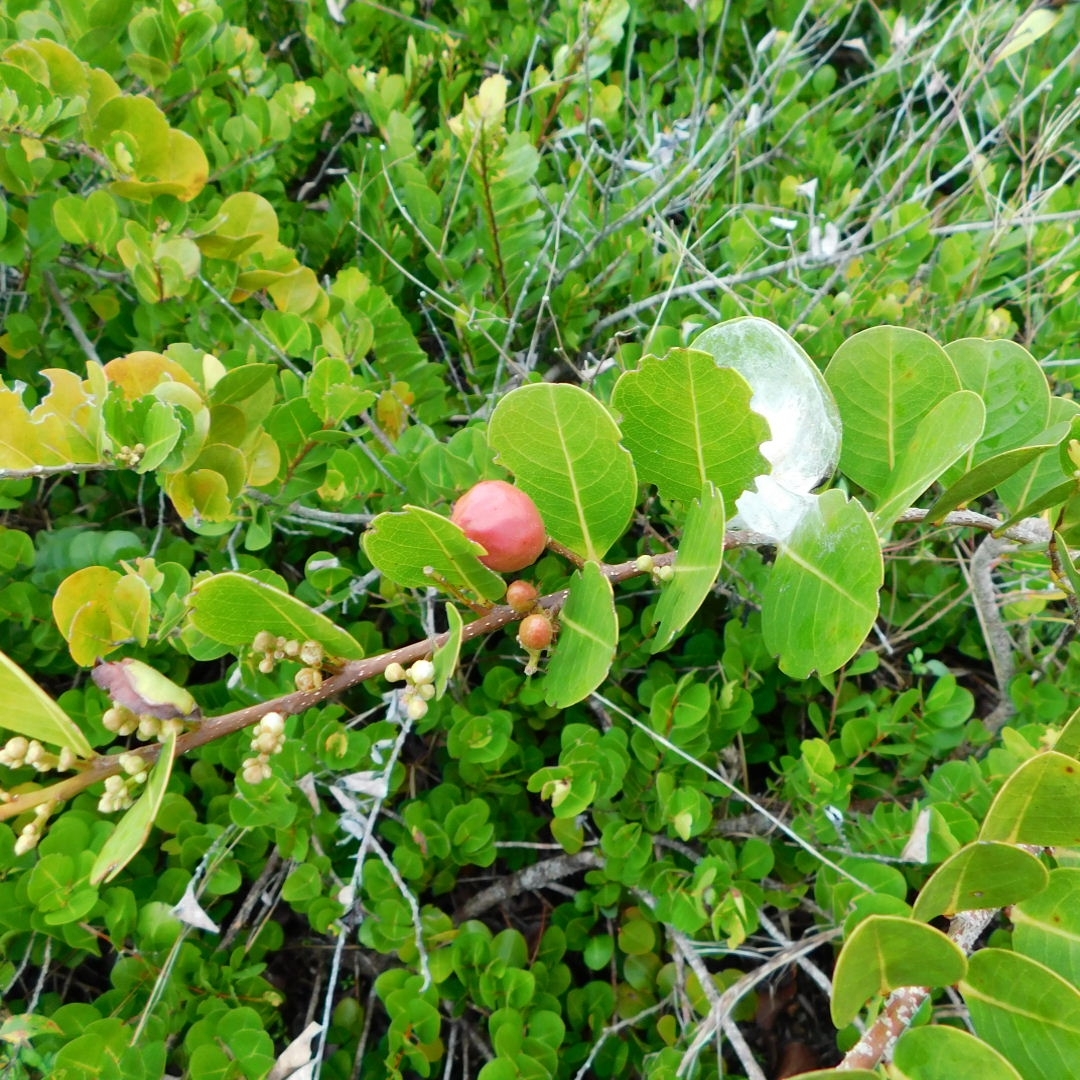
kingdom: Plantae
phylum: Tracheophyta
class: Magnoliopsida
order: Malpighiales
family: Chrysobalanaceae
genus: Chrysobalanus
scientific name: Chrysobalanus icaco
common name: Coco plum
